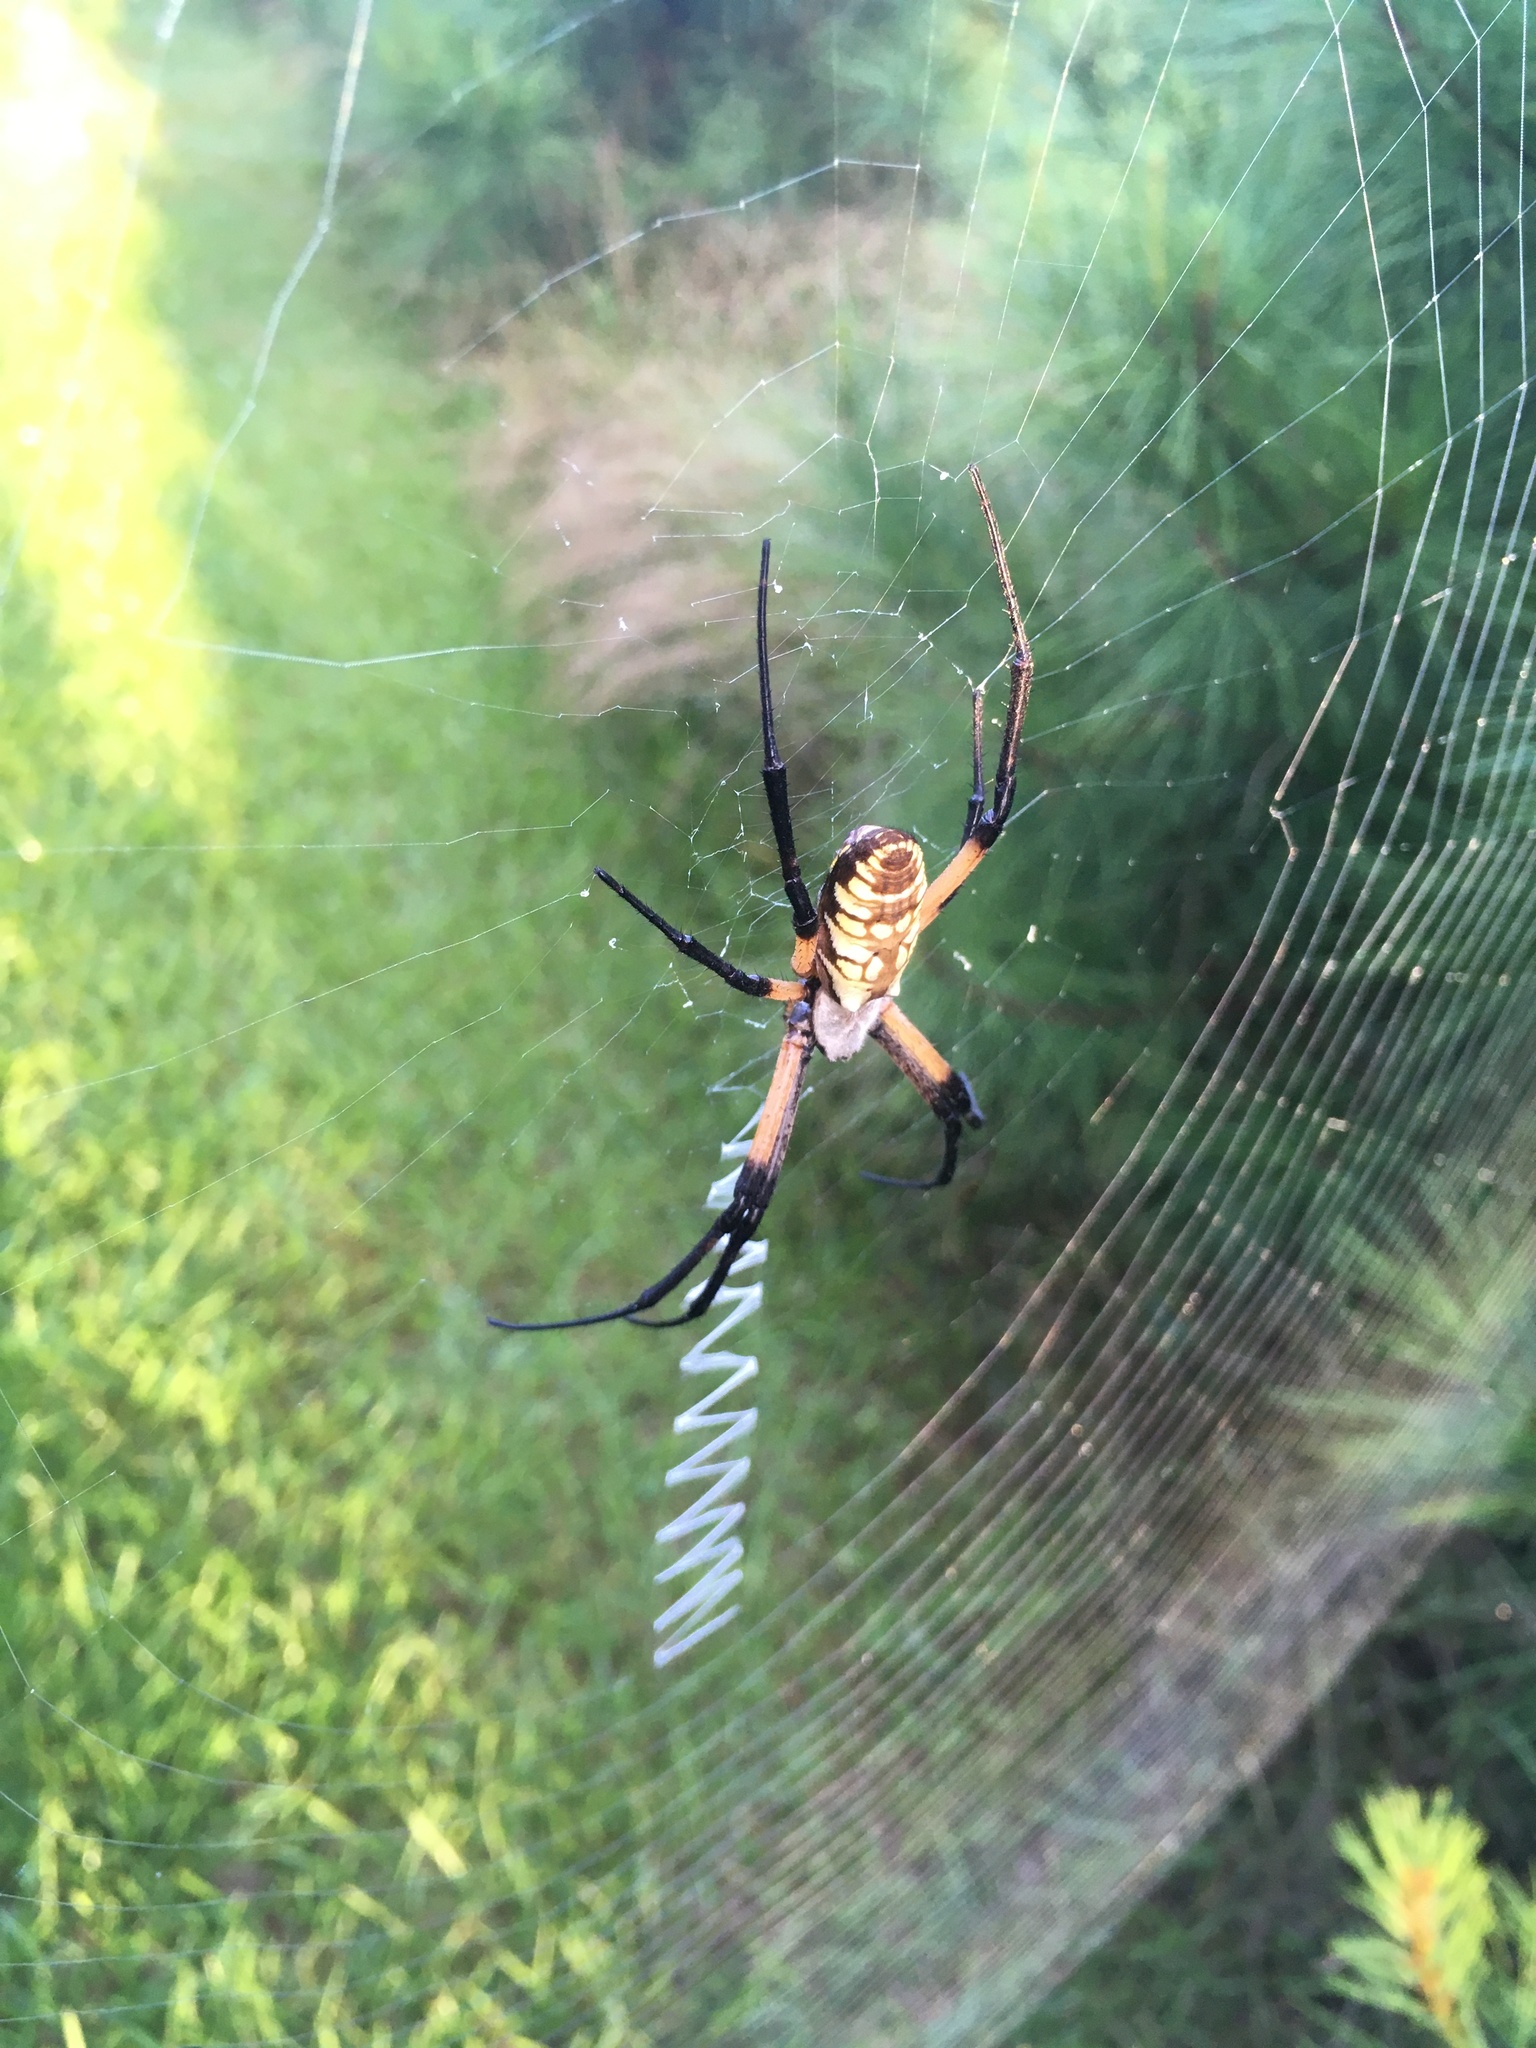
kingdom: Animalia
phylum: Arthropoda
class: Arachnida
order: Araneae
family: Araneidae
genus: Argiope
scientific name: Argiope aurantia
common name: Orb weavers
